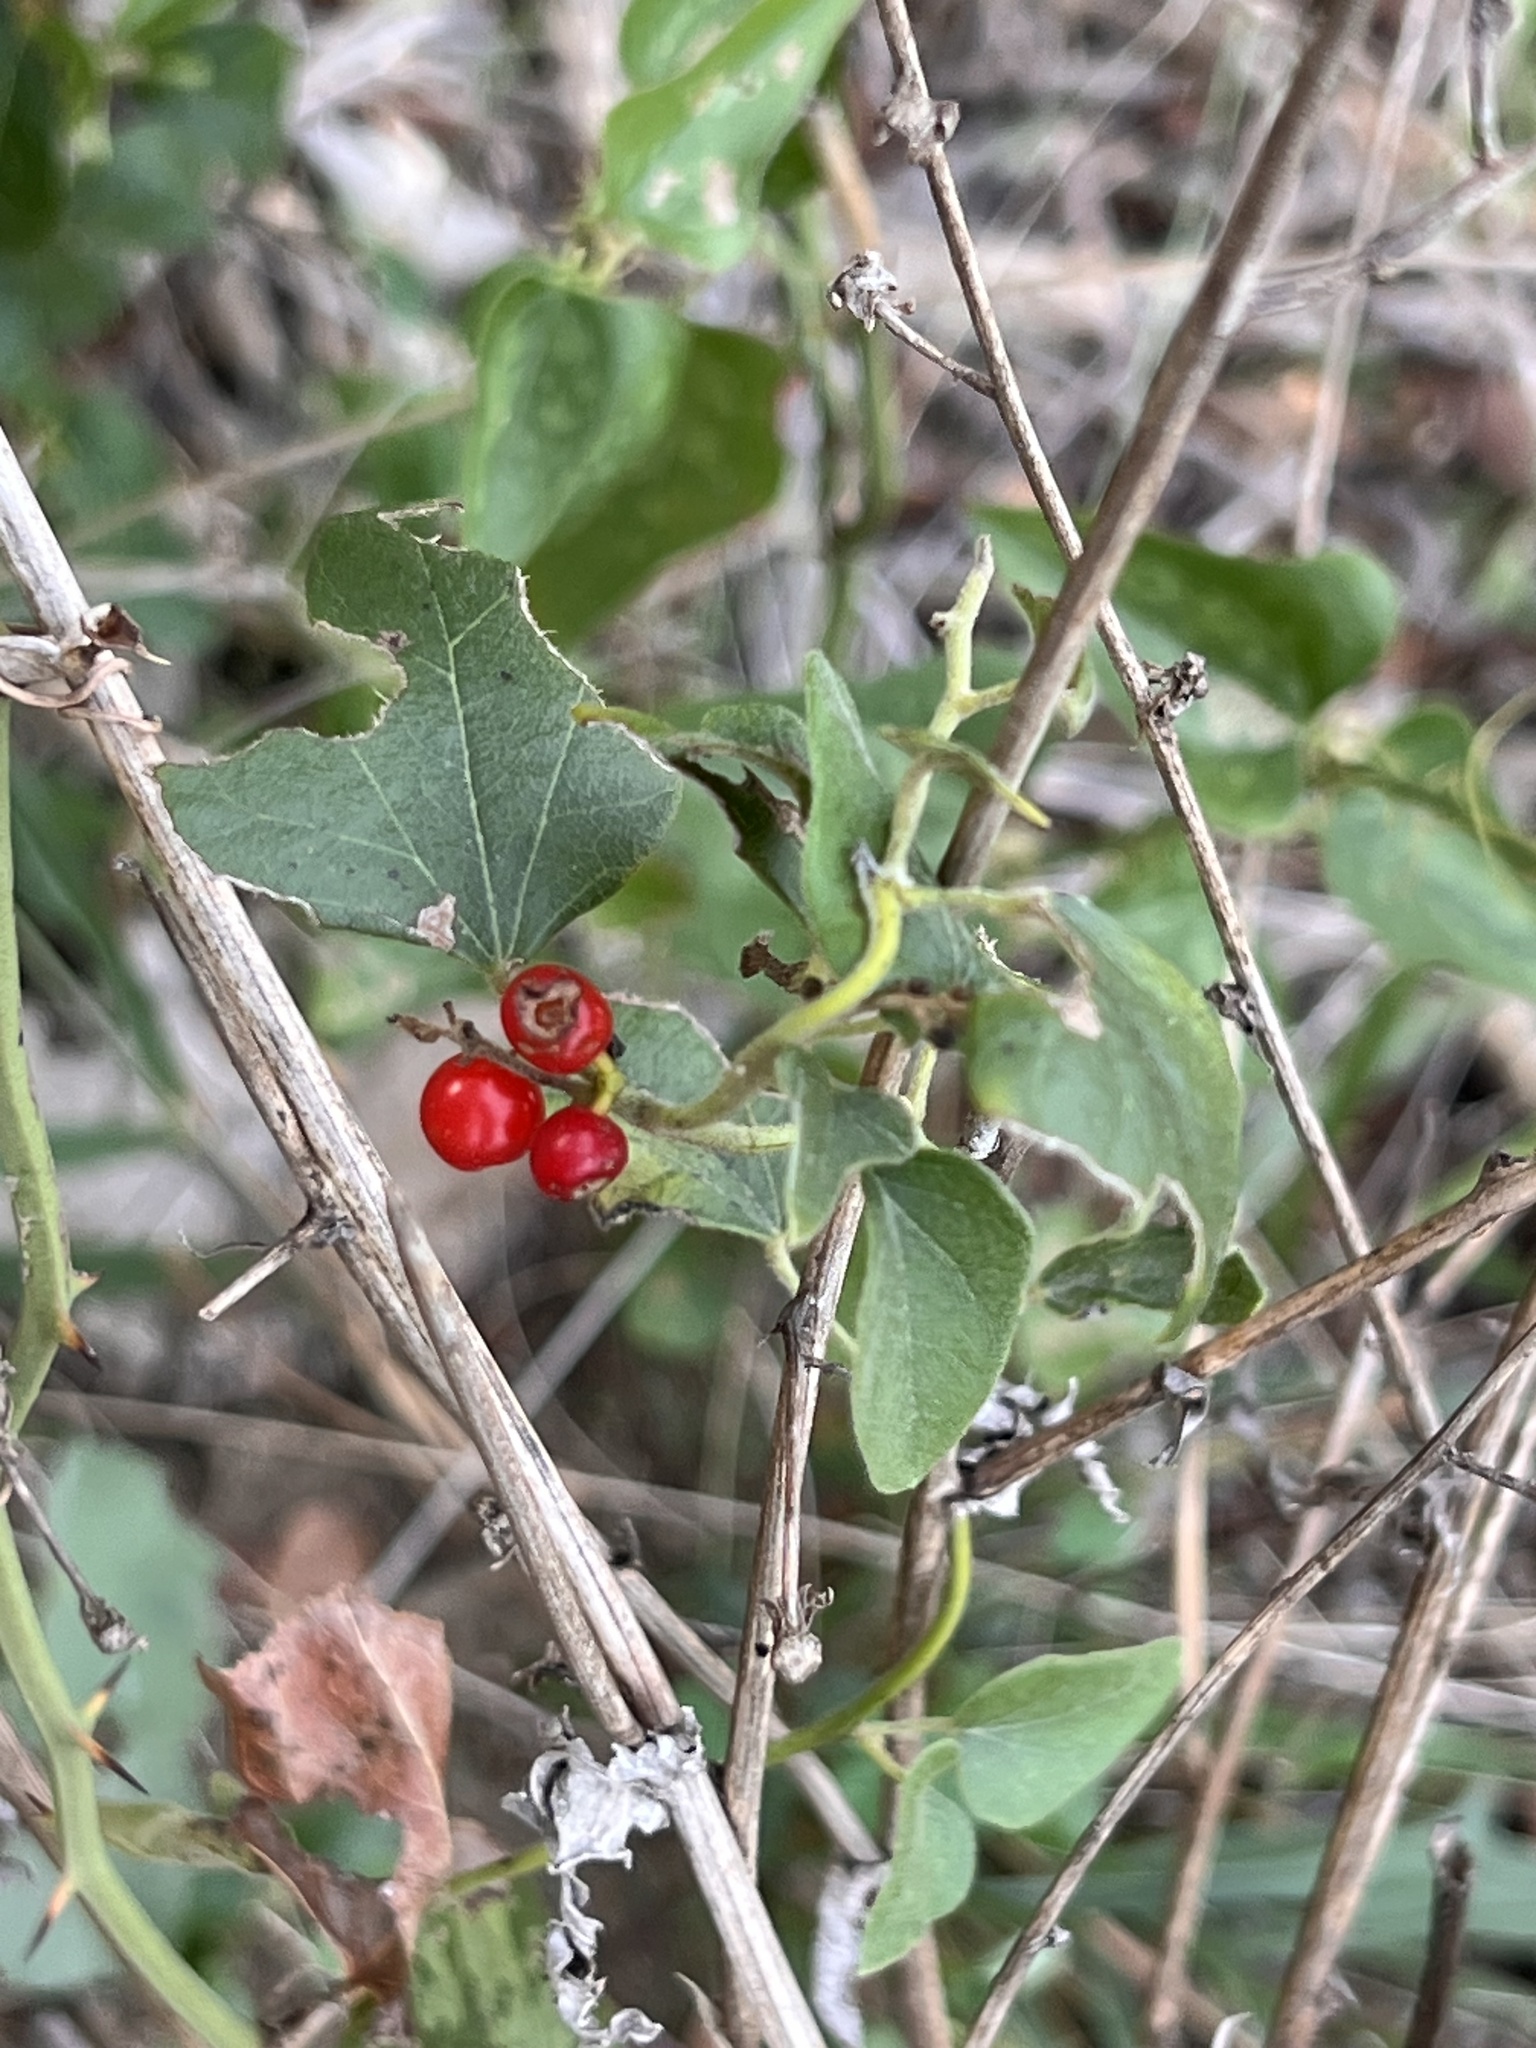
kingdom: Plantae
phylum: Tracheophyta
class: Magnoliopsida
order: Ranunculales
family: Menispermaceae
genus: Cocculus
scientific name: Cocculus carolinus
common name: Carolina moonseed
